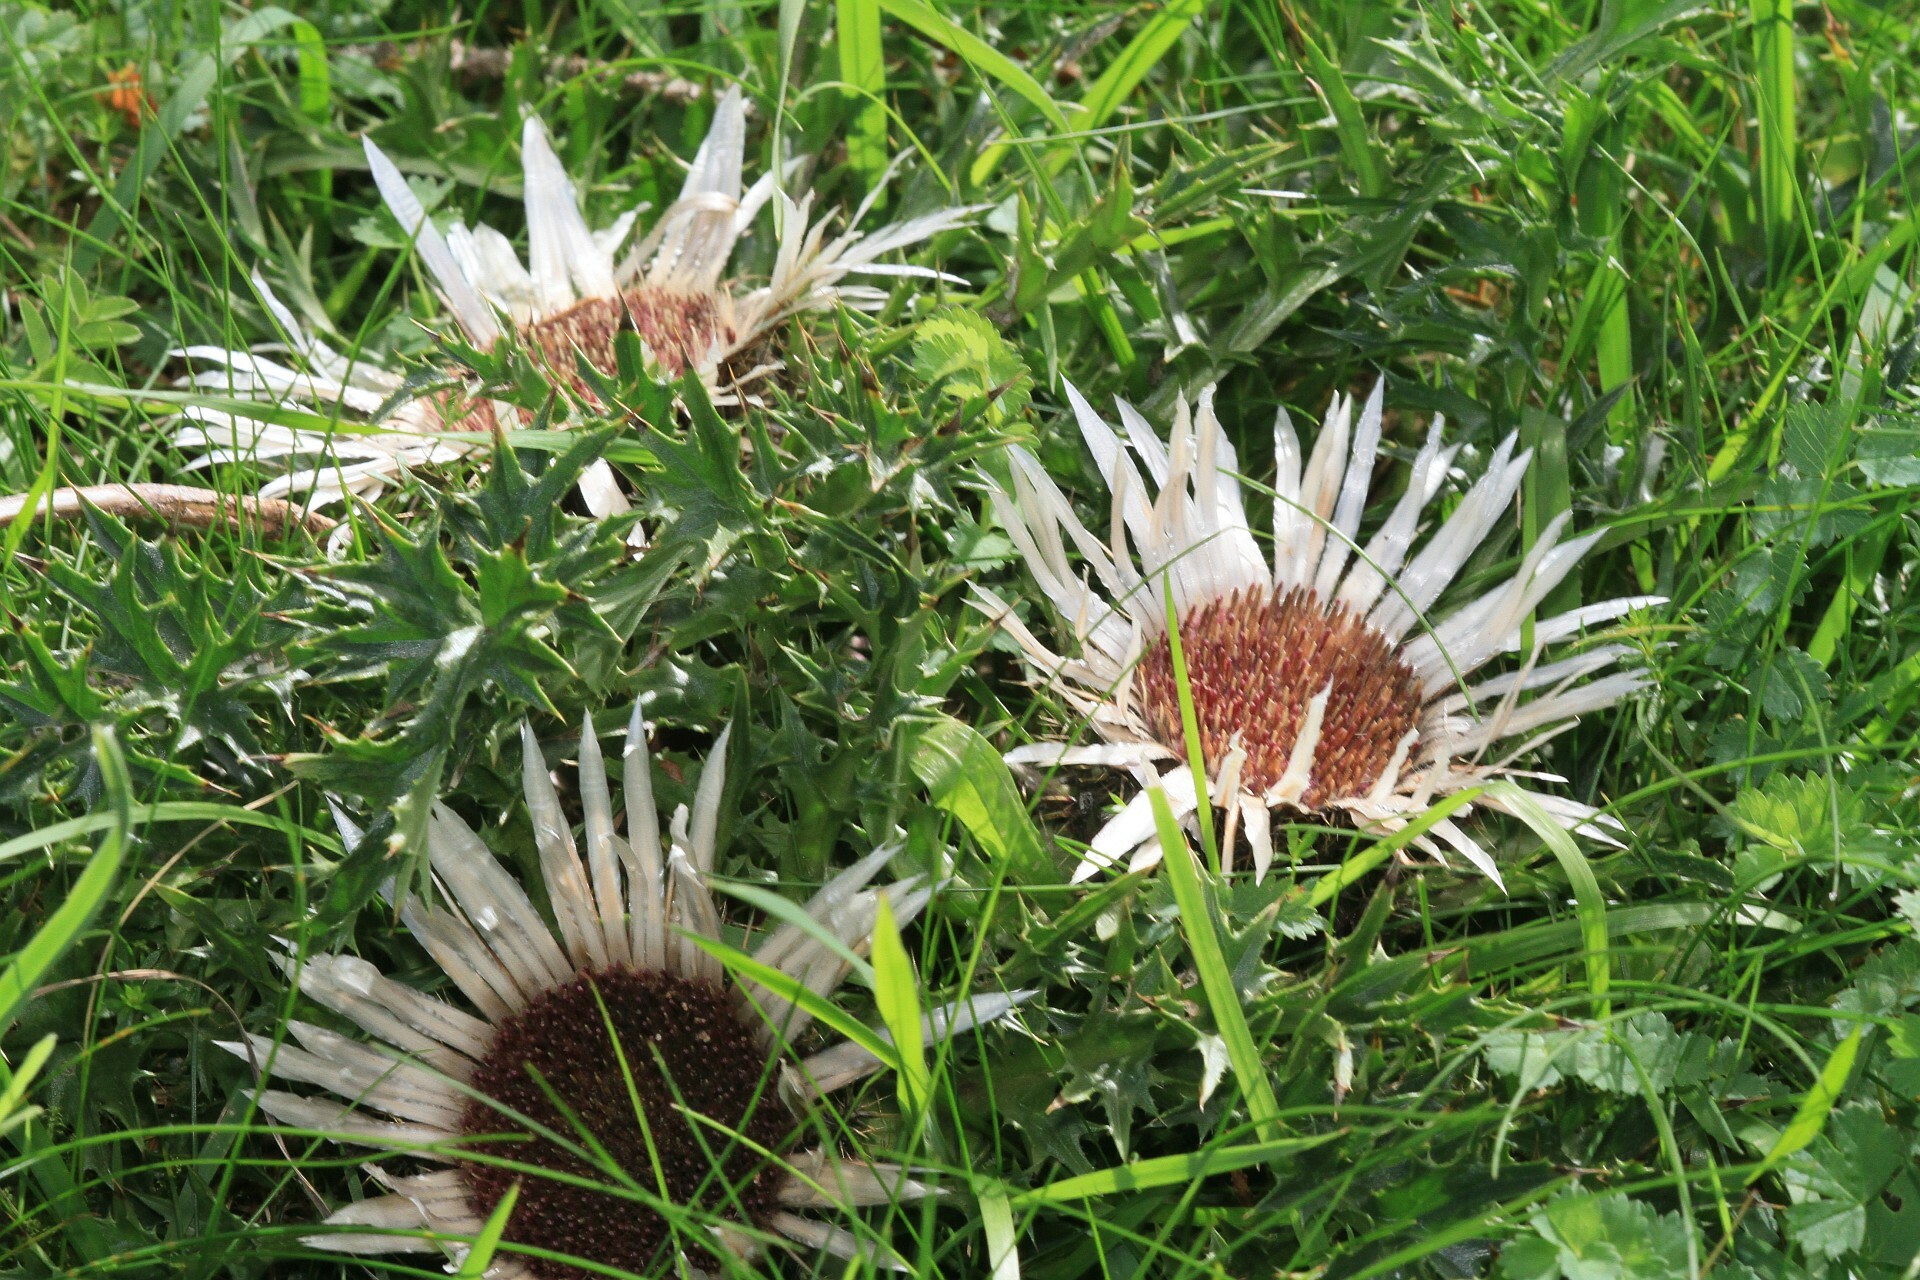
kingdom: Plantae
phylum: Tracheophyta
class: Magnoliopsida
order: Asterales
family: Asteraceae
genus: Carlina
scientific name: Carlina acaulis
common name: Stemless carline thistle
